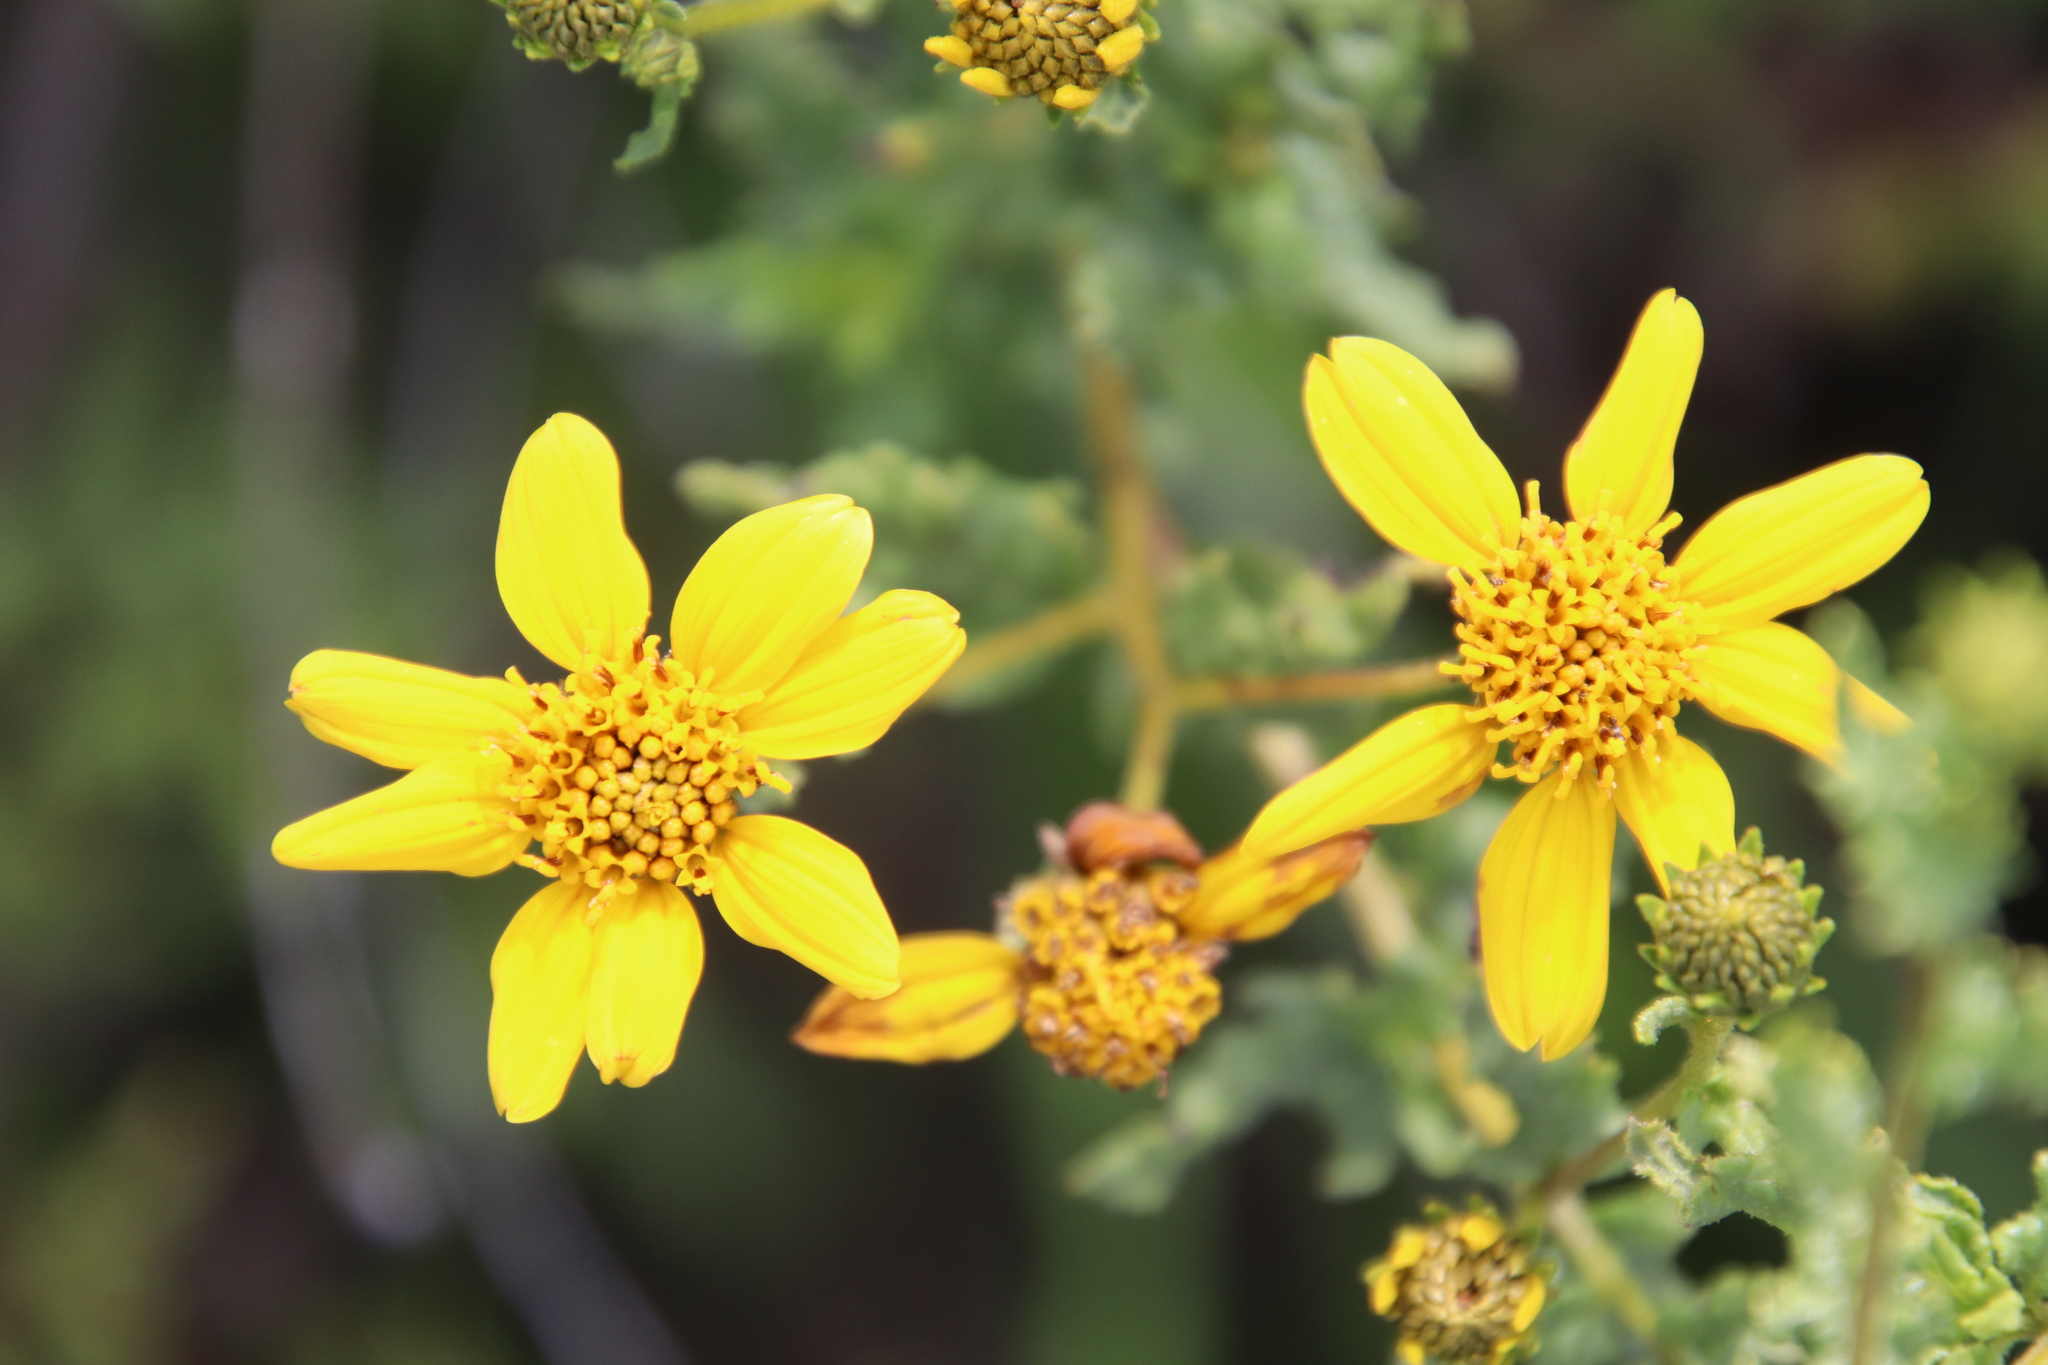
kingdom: Plantae
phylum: Tracheophyta
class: Magnoliopsida
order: Asterales
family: Asteraceae
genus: Bahiopsis
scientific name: Bahiopsis laciniata
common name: San diego county viguiera
